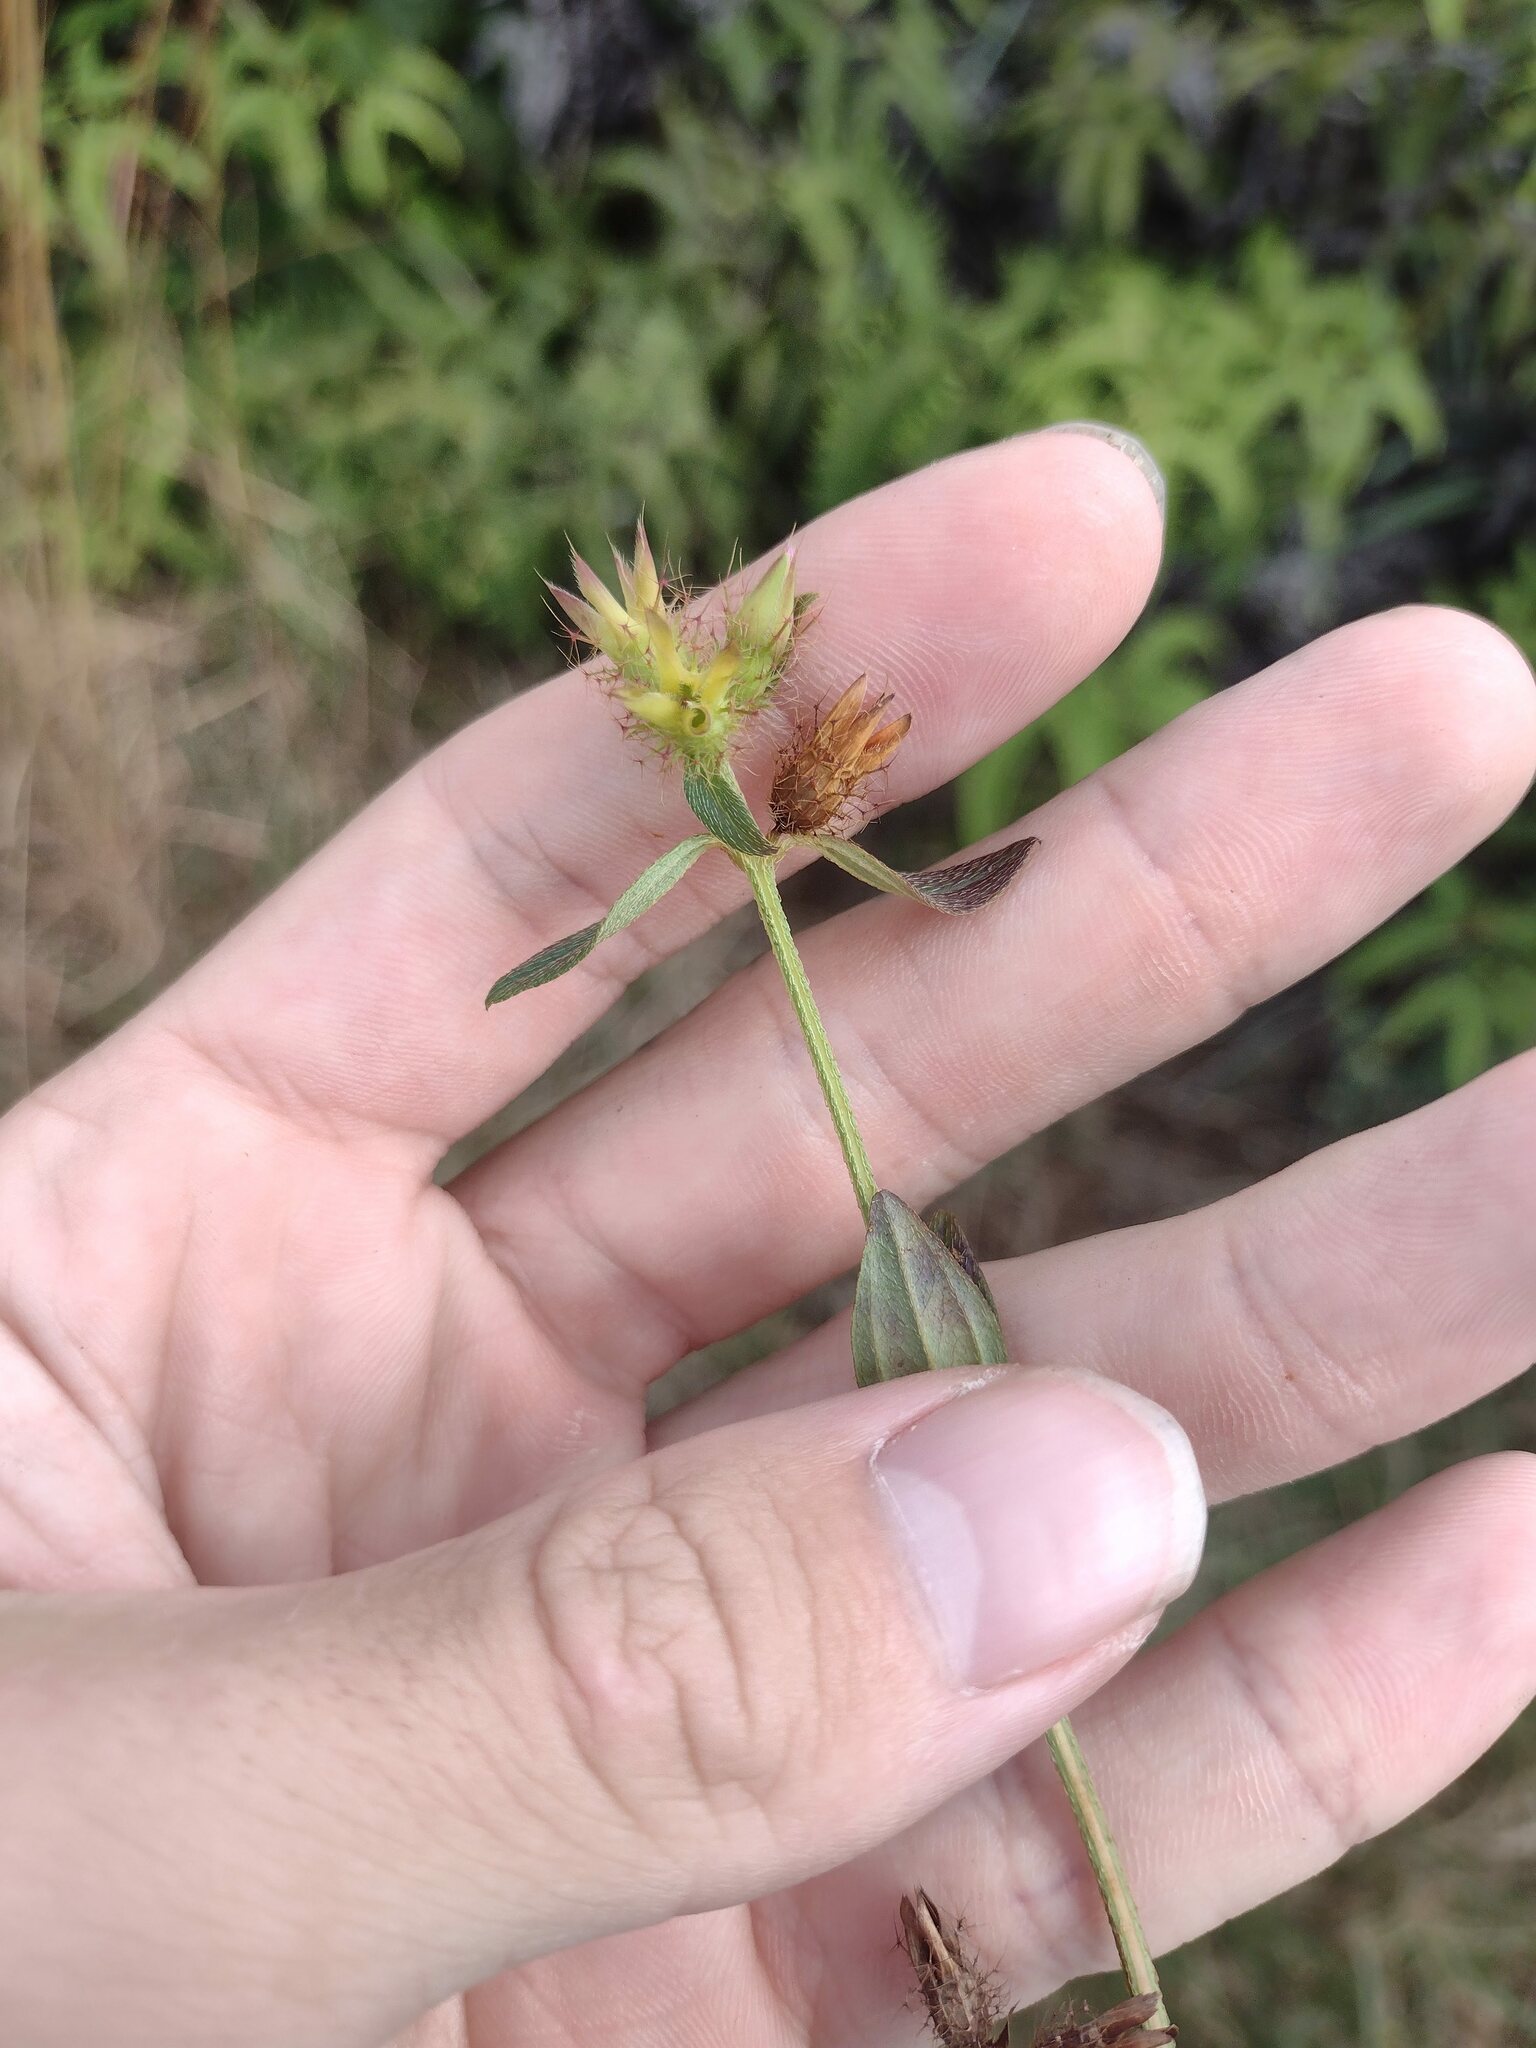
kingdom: Plantae
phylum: Tracheophyta
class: Magnoliopsida
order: Myrtales
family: Melastomataceae
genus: Pterolepis
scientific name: Pterolepis glomerata
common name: False meadowbeauty
